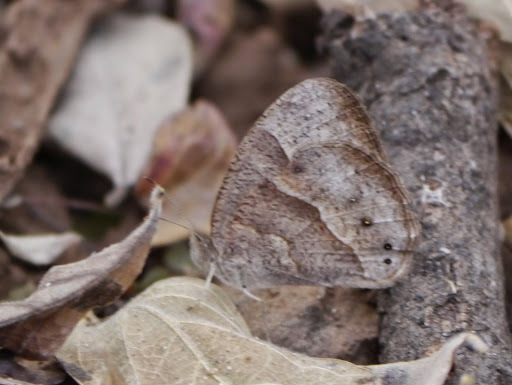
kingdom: Animalia
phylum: Arthropoda
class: Insecta
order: Lepidoptera
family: Nymphalidae
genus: Mycalesis
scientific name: Mycalesis anynana
